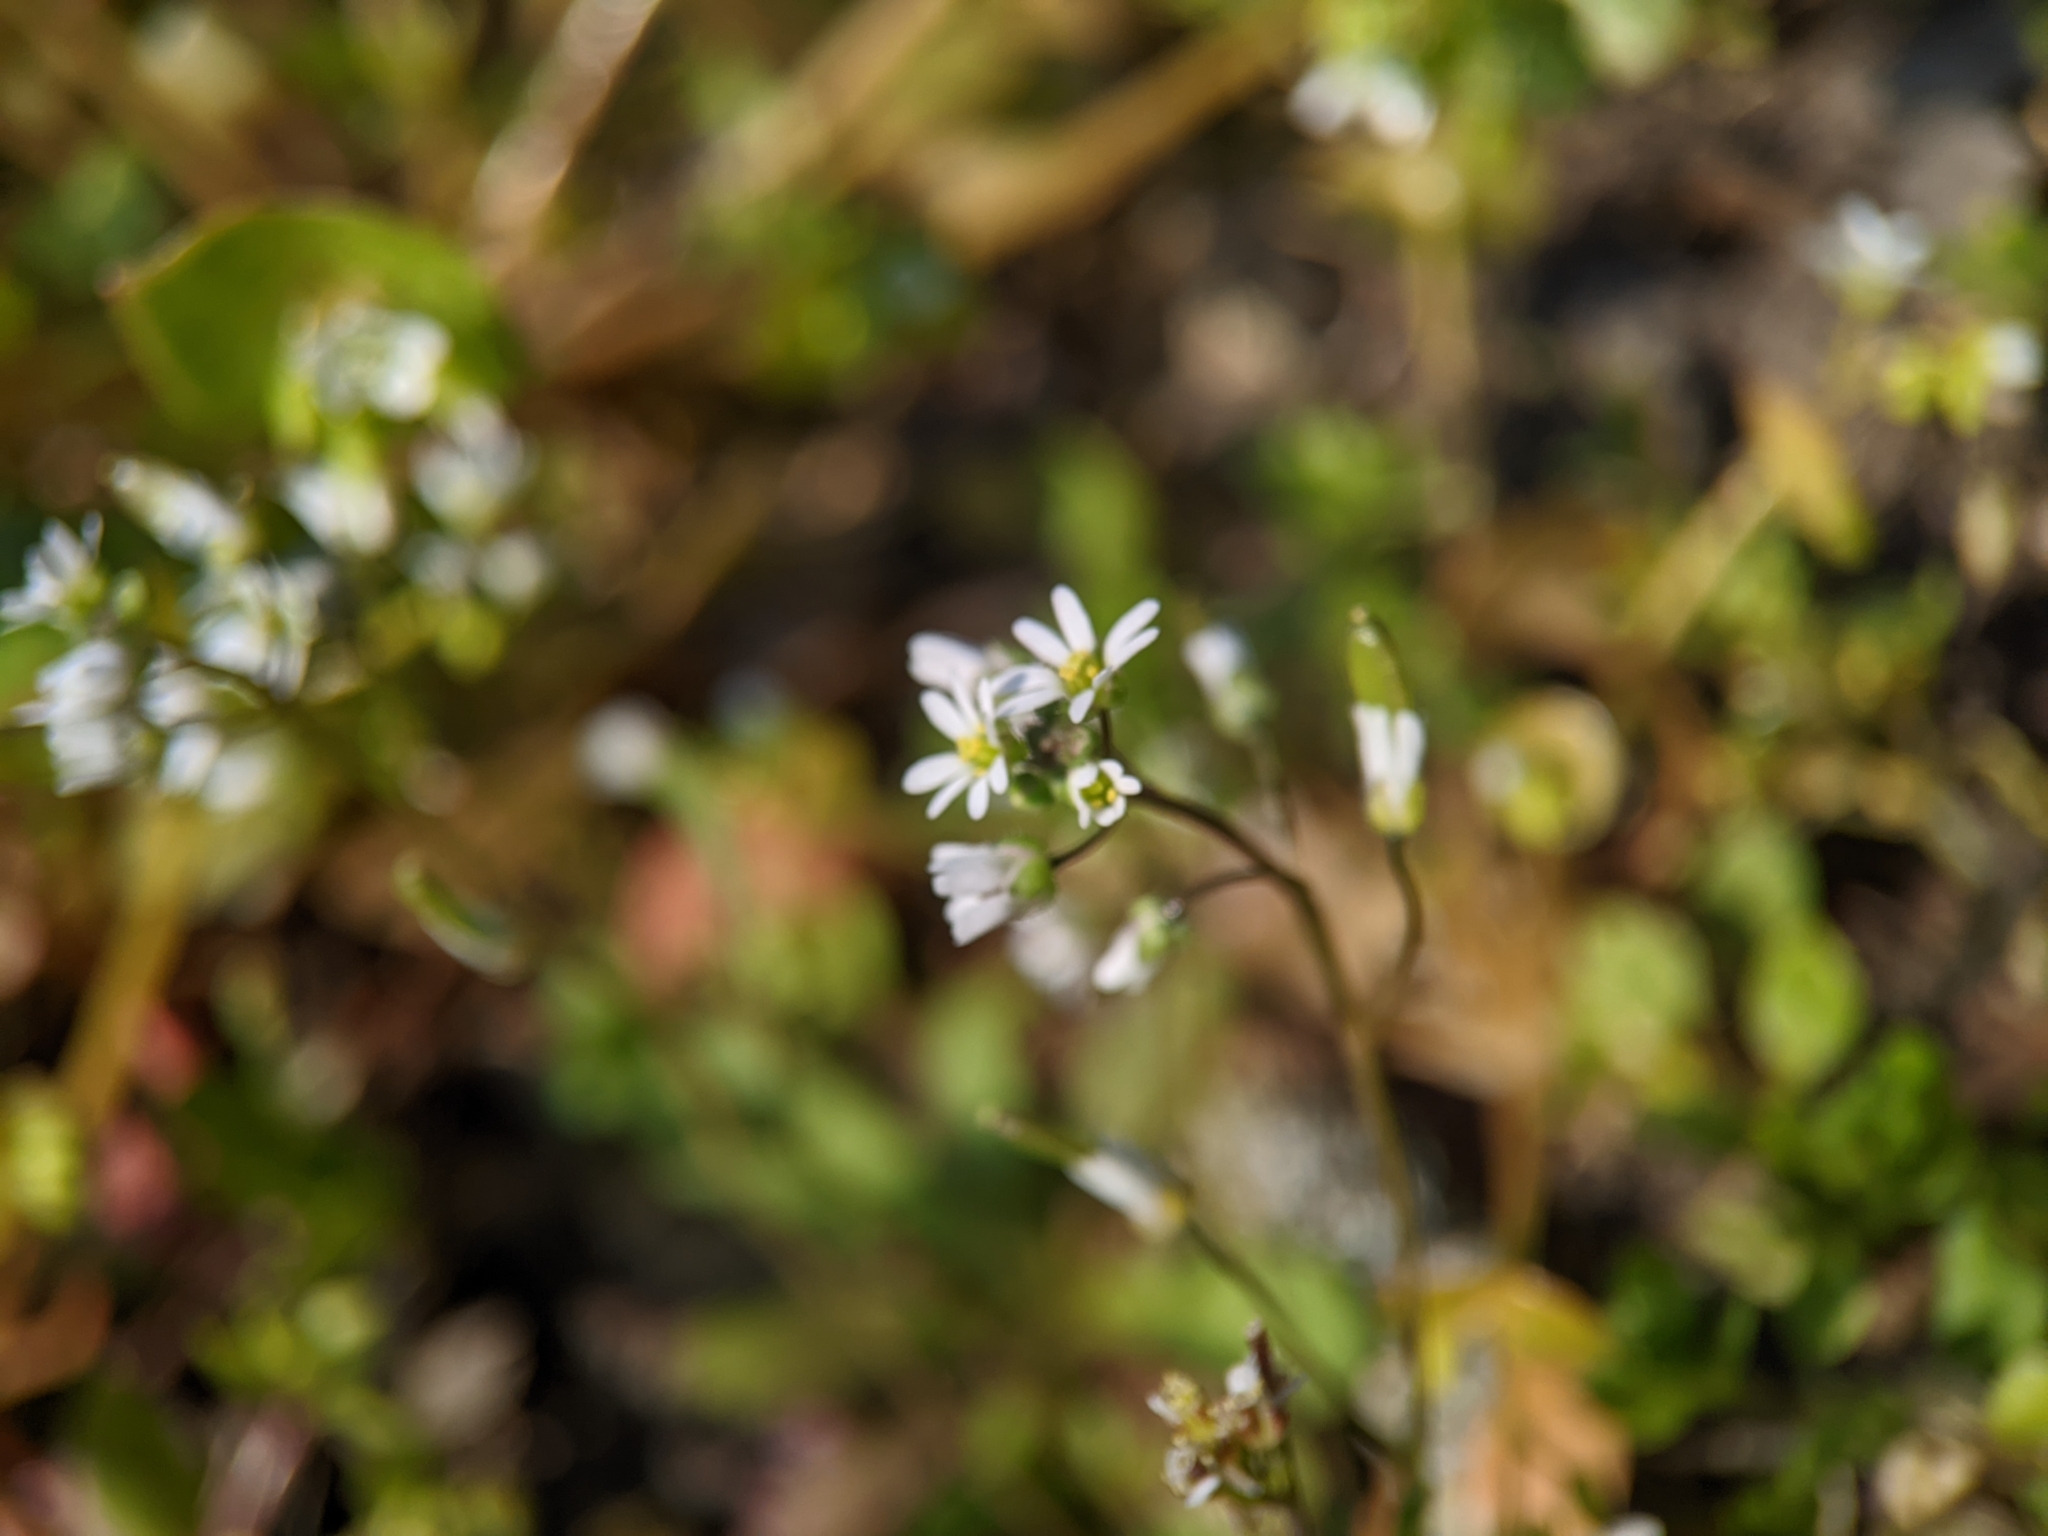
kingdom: Plantae
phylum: Tracheophyta
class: Magnoliopsida
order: Brassicales
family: Brassicaceae
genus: Draba
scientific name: Draba verna
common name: Spring draba
